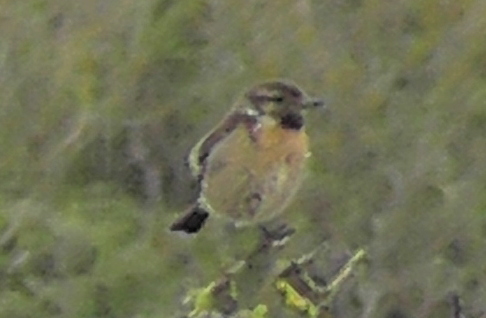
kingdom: Animalia
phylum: Chordata
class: Aves
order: Passeriformes
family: Muscicapidae
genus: Saxicola
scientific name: Saxicola rubicola
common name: European stonechat
